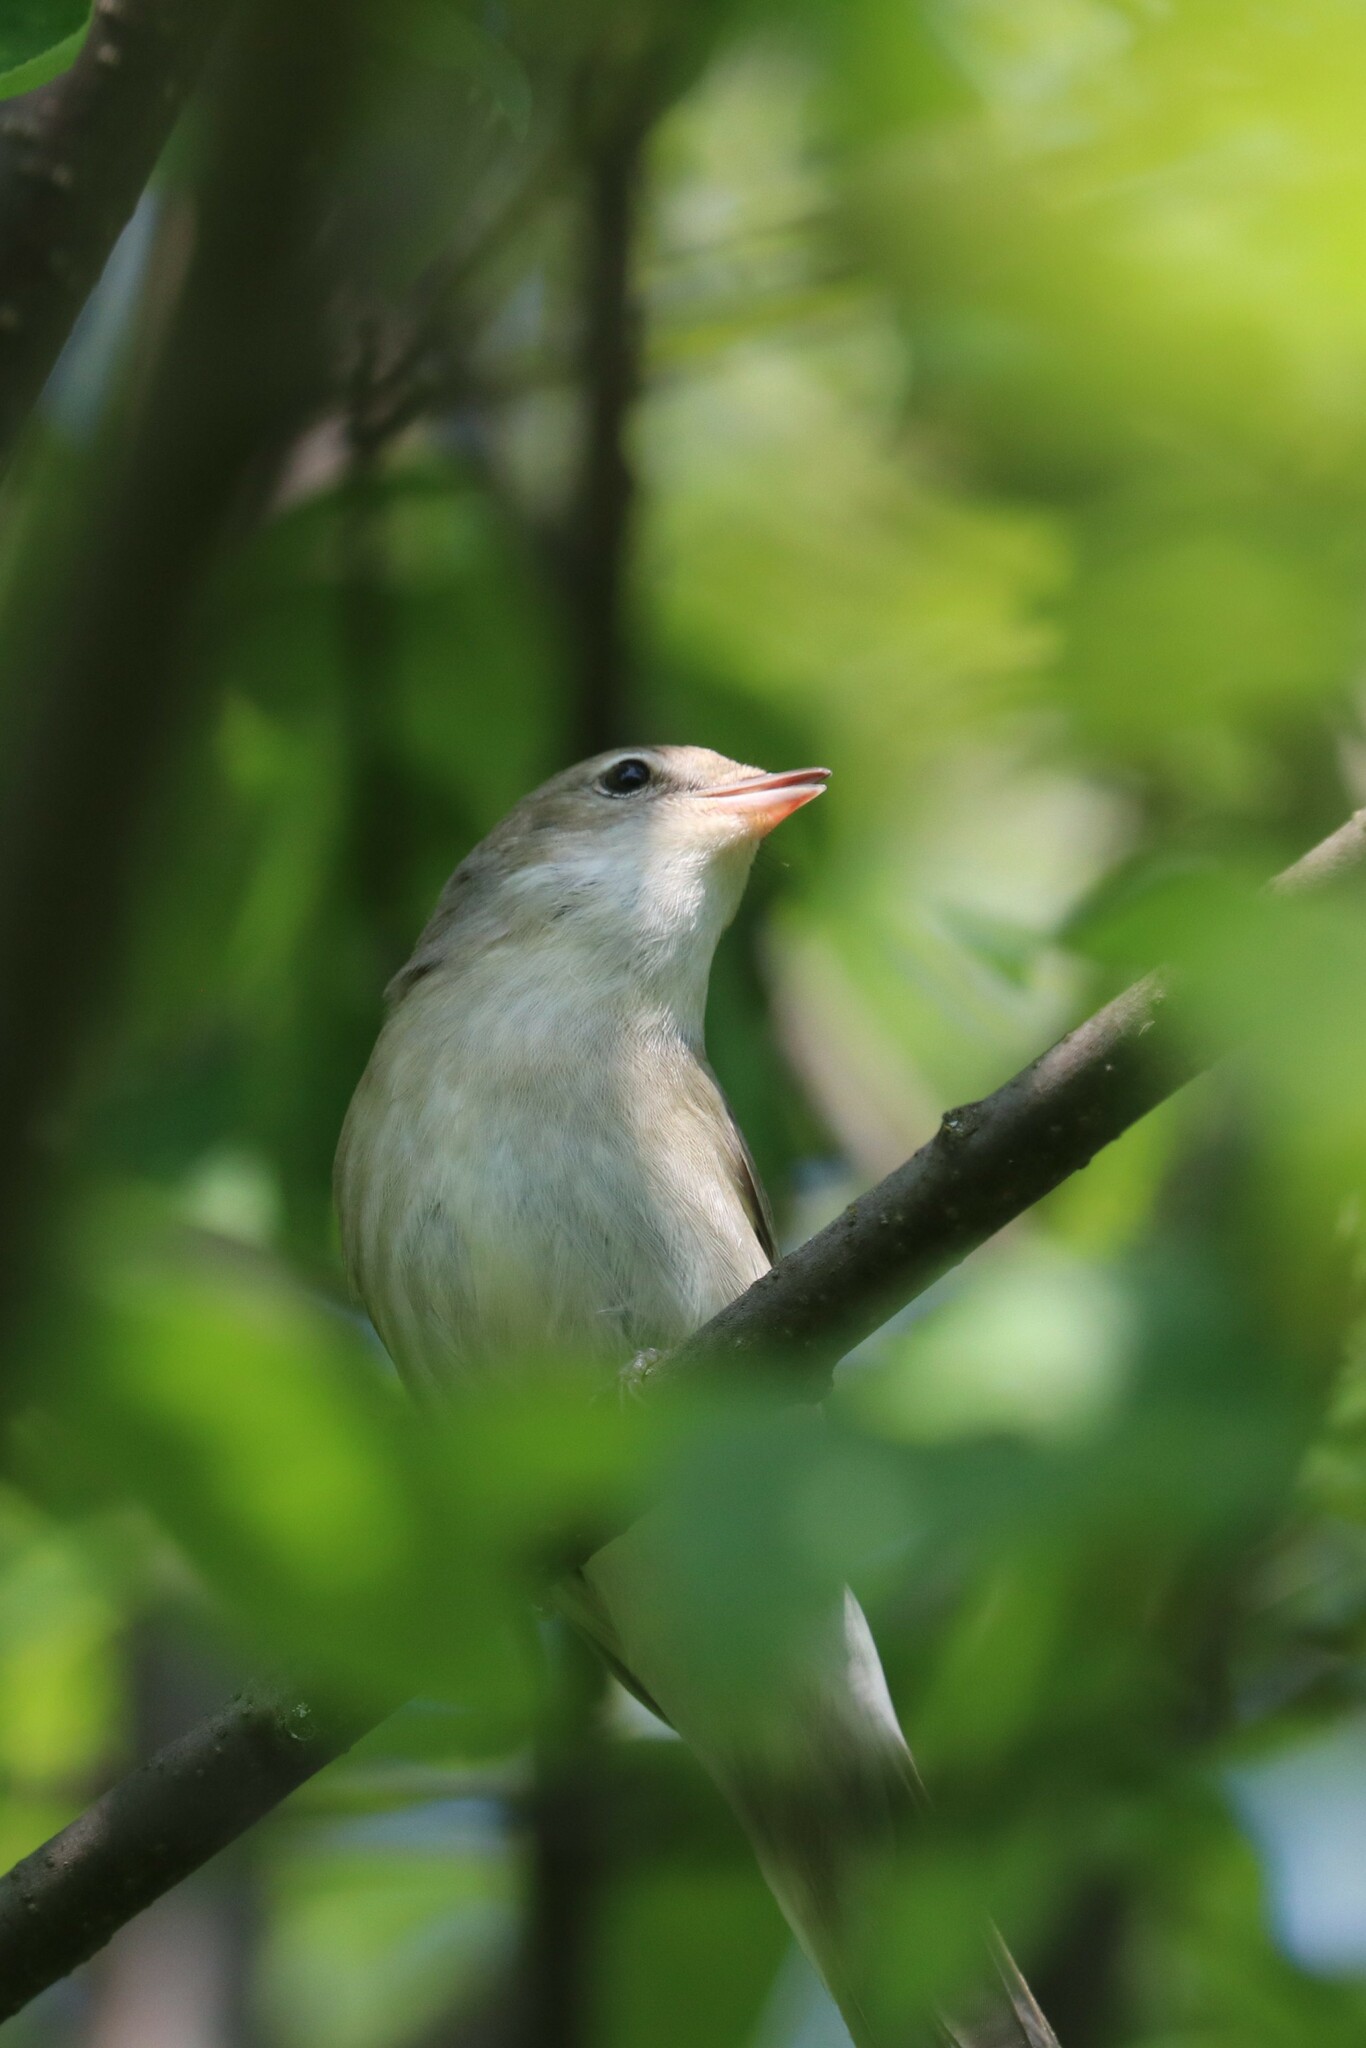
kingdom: Animalia
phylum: Chordata
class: Aves
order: Passeriformes
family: Sylviidae
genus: Sylvia
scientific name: Sylvia borin
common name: Garden warbler
